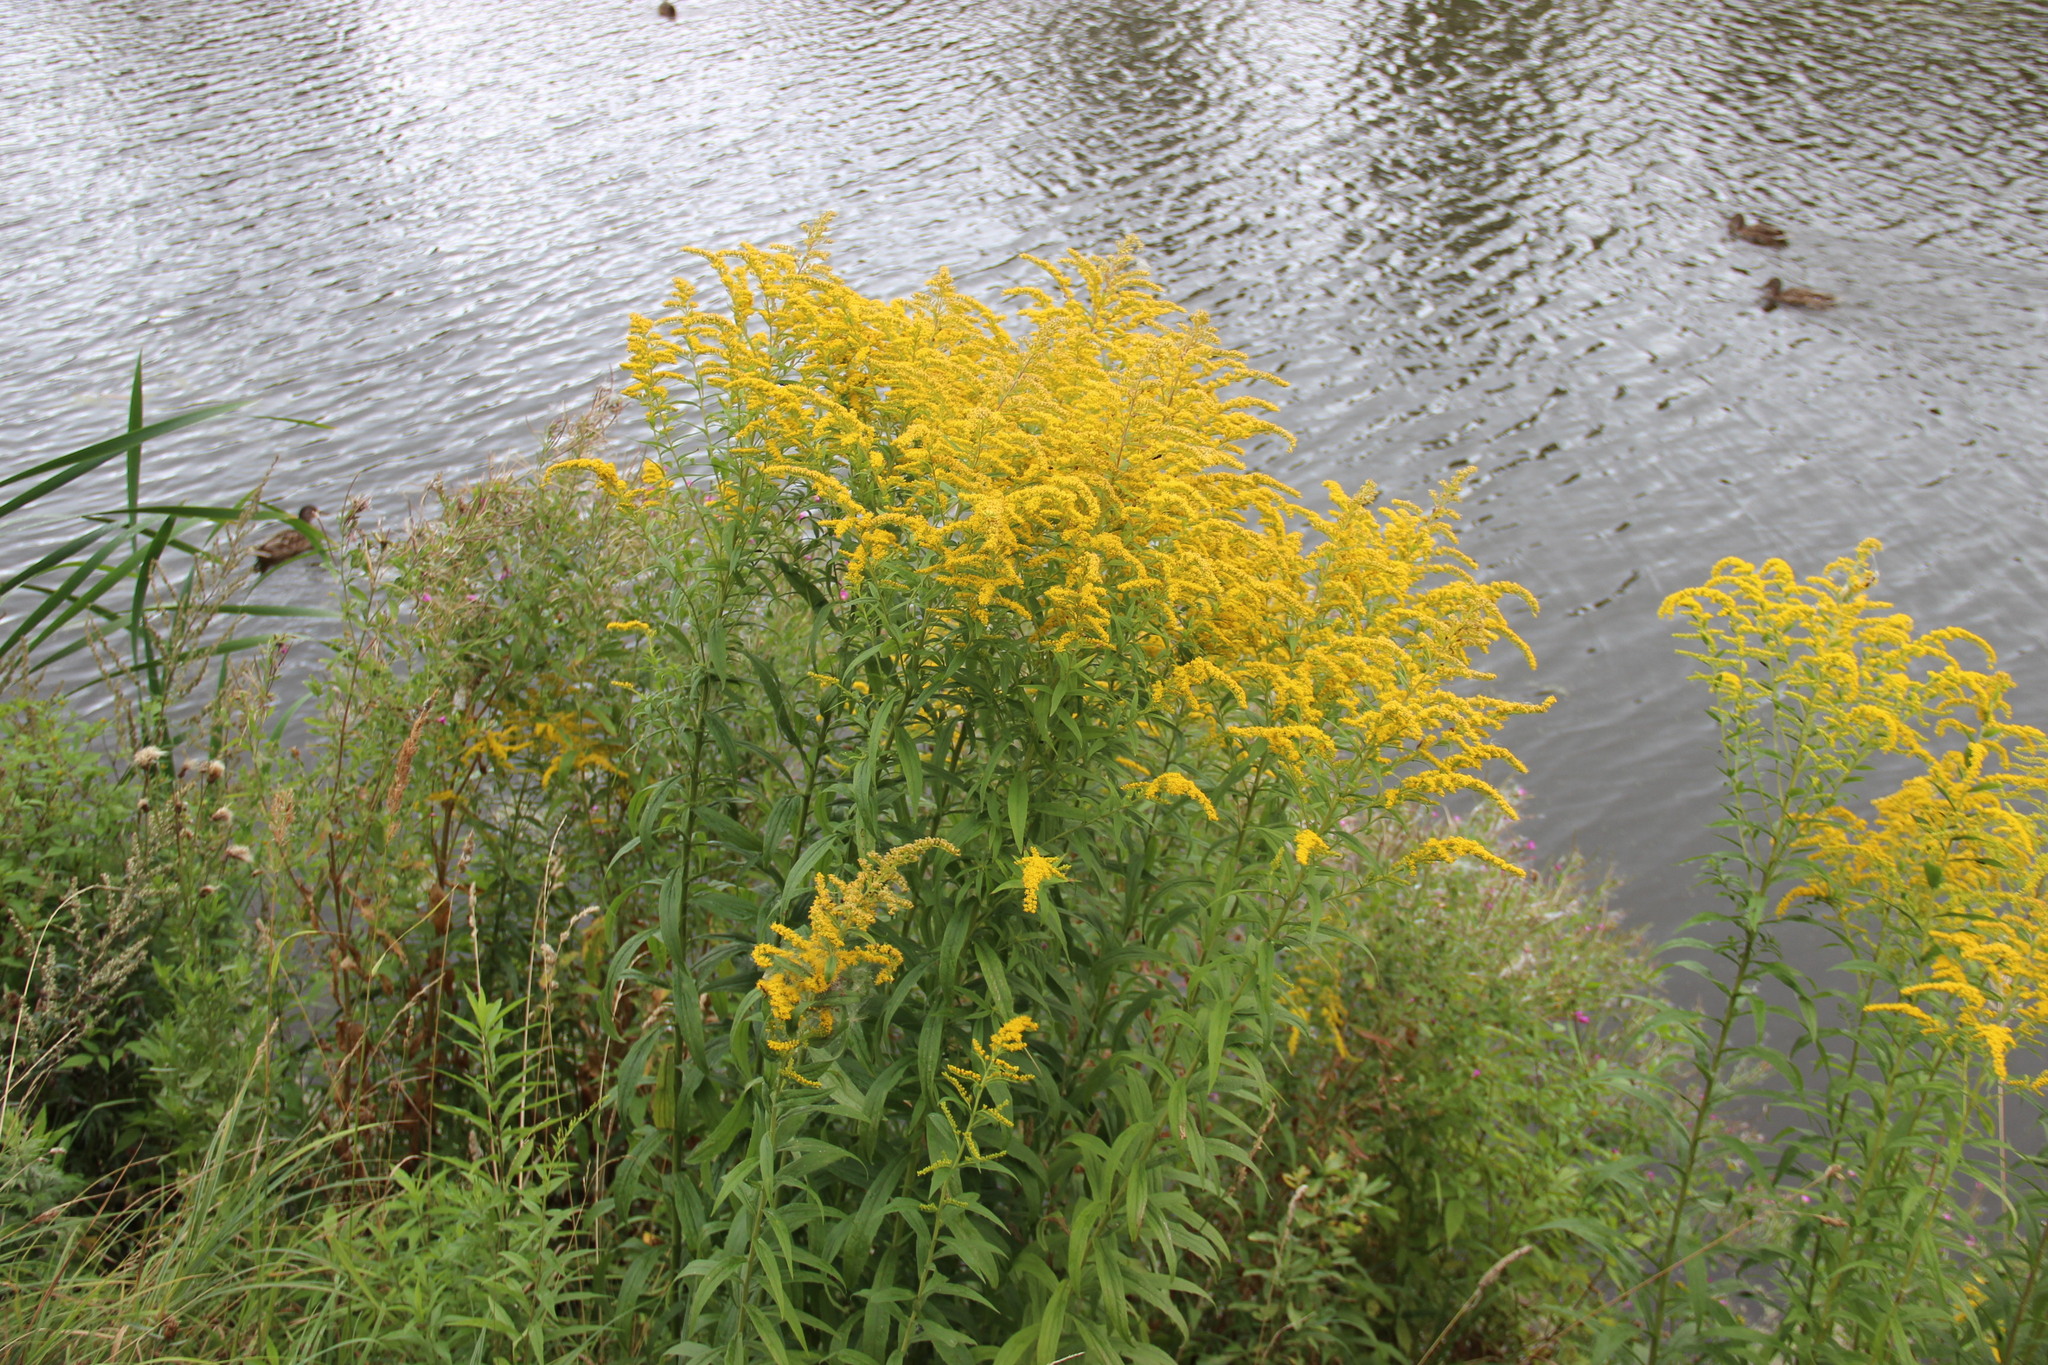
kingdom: Plantae
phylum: Tracheophyta
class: Magnoliopsida
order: Asterales
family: Asteraceae
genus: Solidago
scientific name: Solidago canadensis
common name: Canada goldenrod
